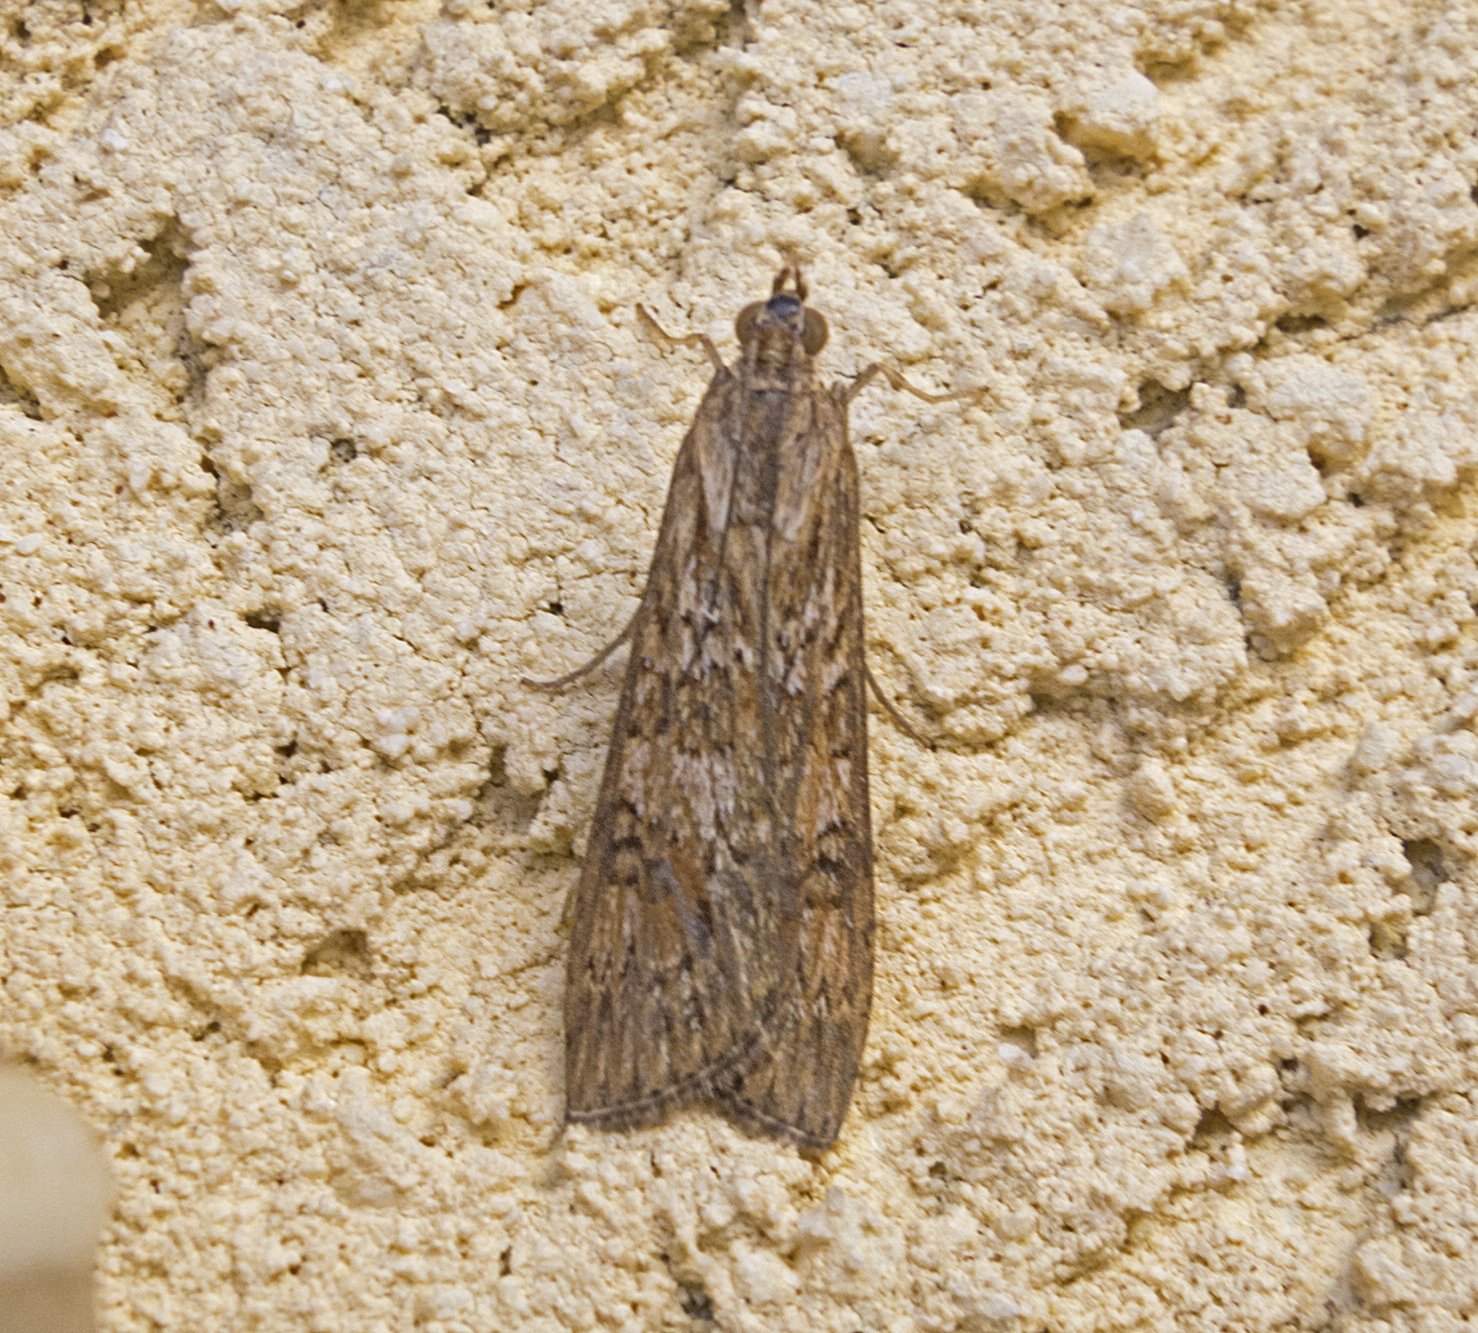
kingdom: Animalia
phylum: Arthropoda
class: Insecta
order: Lepidoptera
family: Crambidae
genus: Nomophila
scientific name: Nomophila noctuella
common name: Rush veneer
